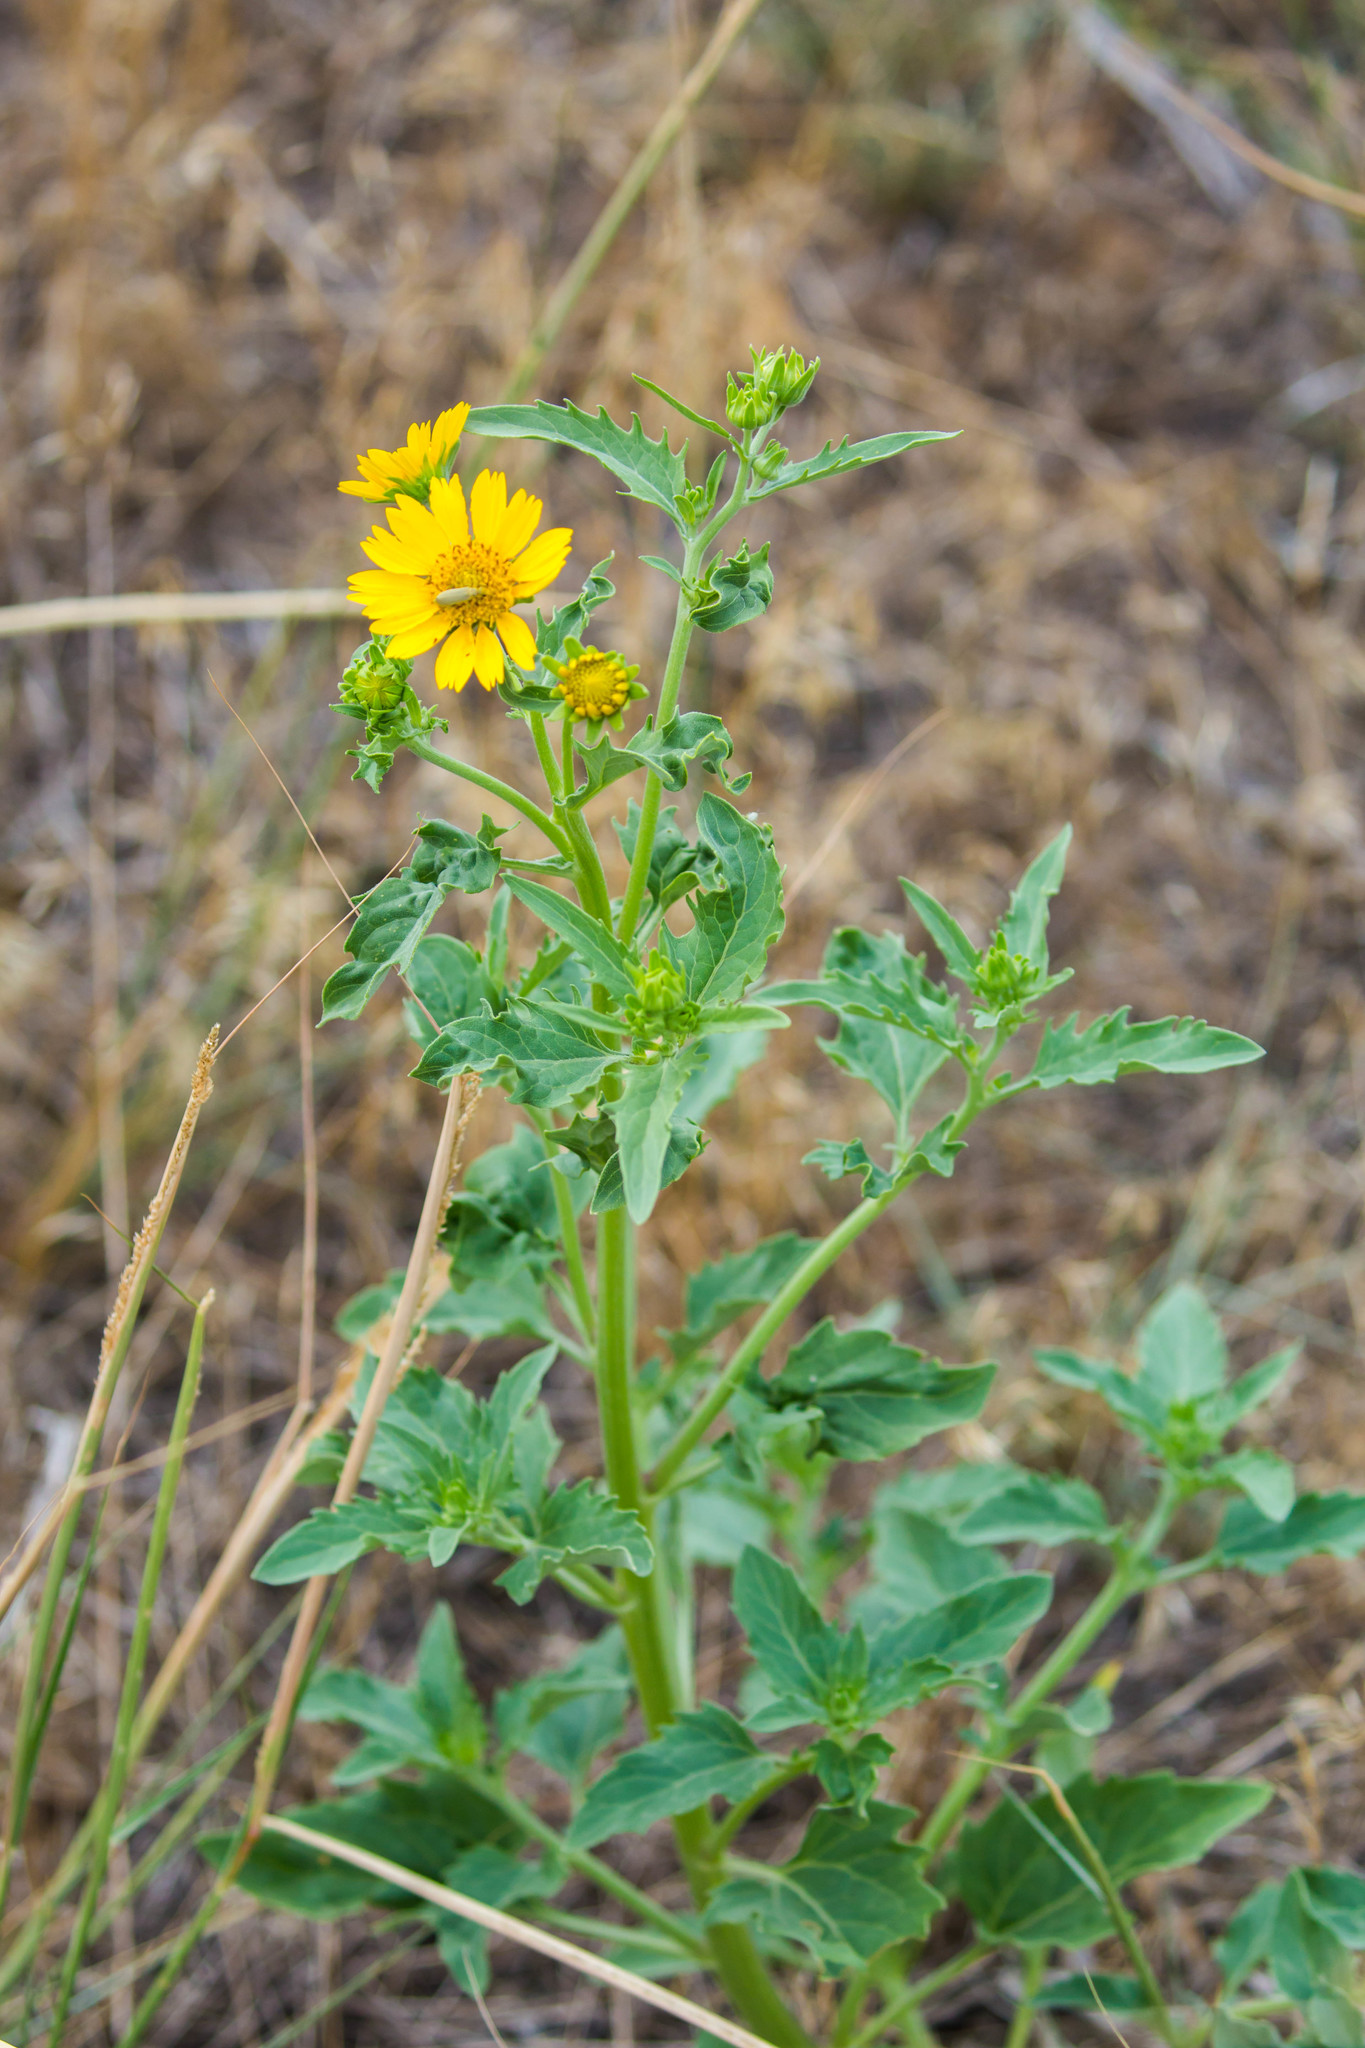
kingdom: Plantae
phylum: Tracheophyta
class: Magnoliopsida
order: Asterales
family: Asteraceae
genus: Verbesina
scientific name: Verbesina encelioides
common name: Golden crownbeard
